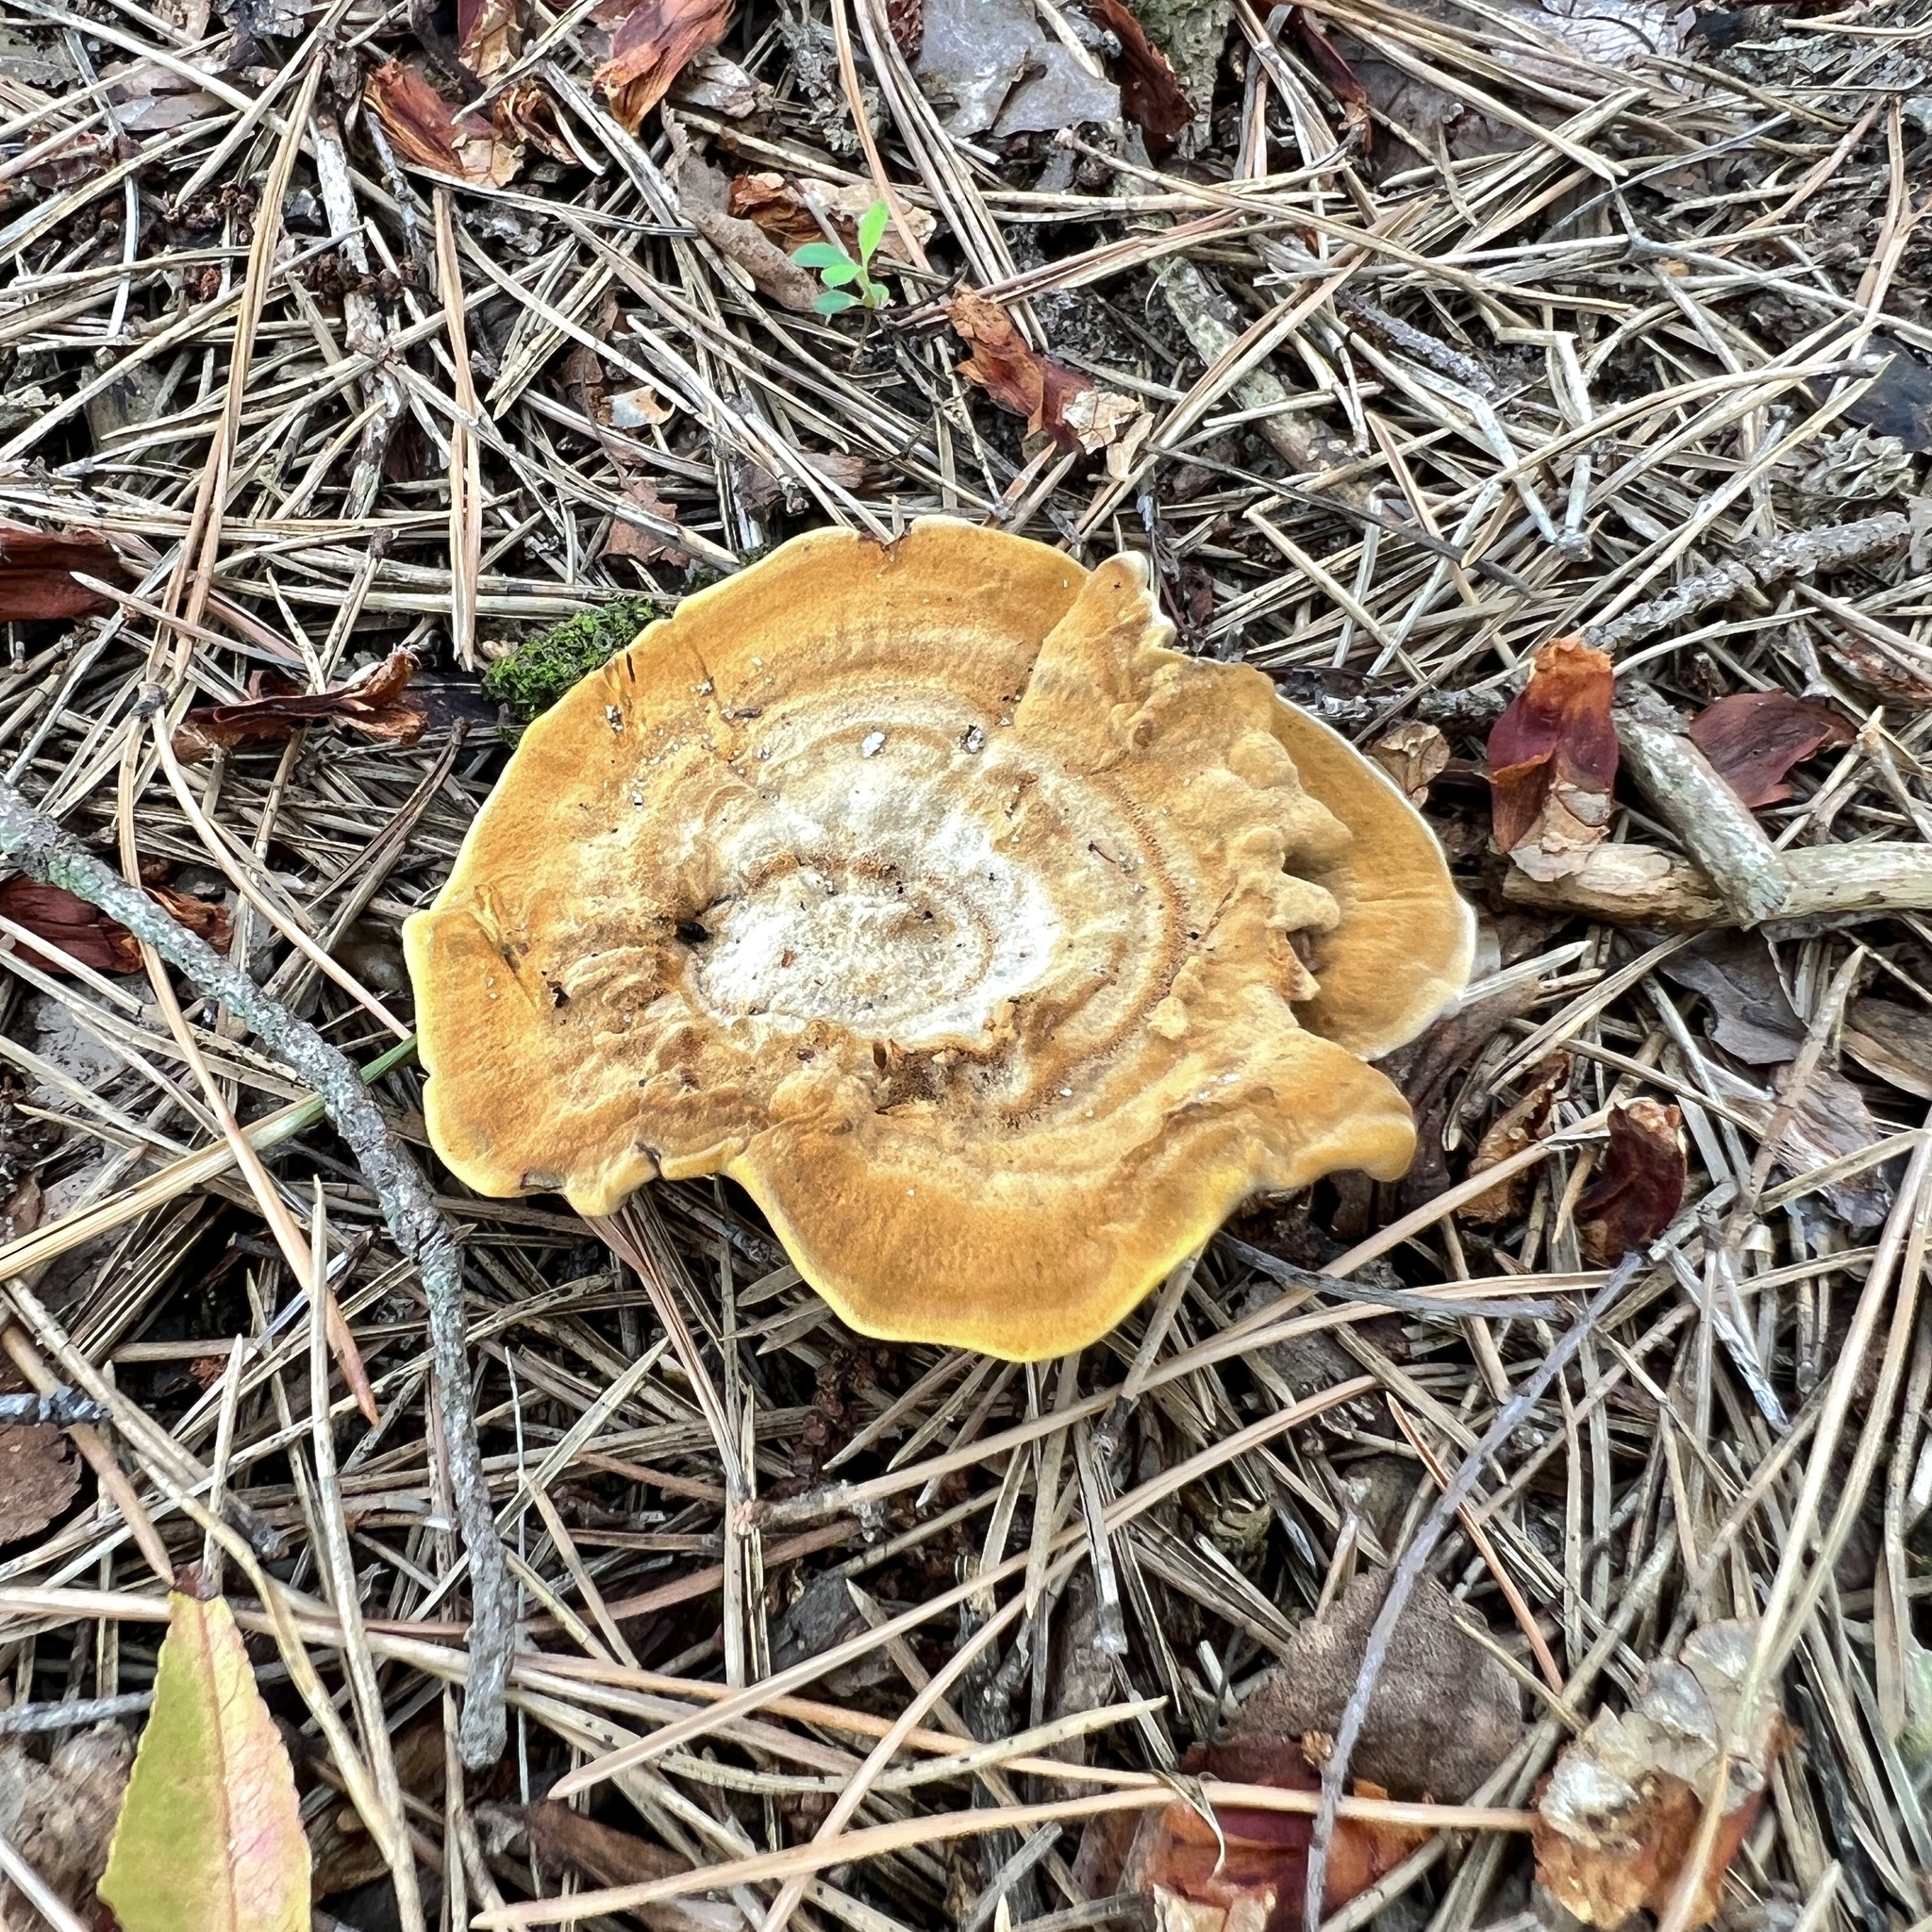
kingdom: Fungi
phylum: Basidiomycota
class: Agaricomycetes
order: Hymenochaetales
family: Hymenochaetaceae
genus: Coltricia
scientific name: Coltricia perennis
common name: Tiger's eye
